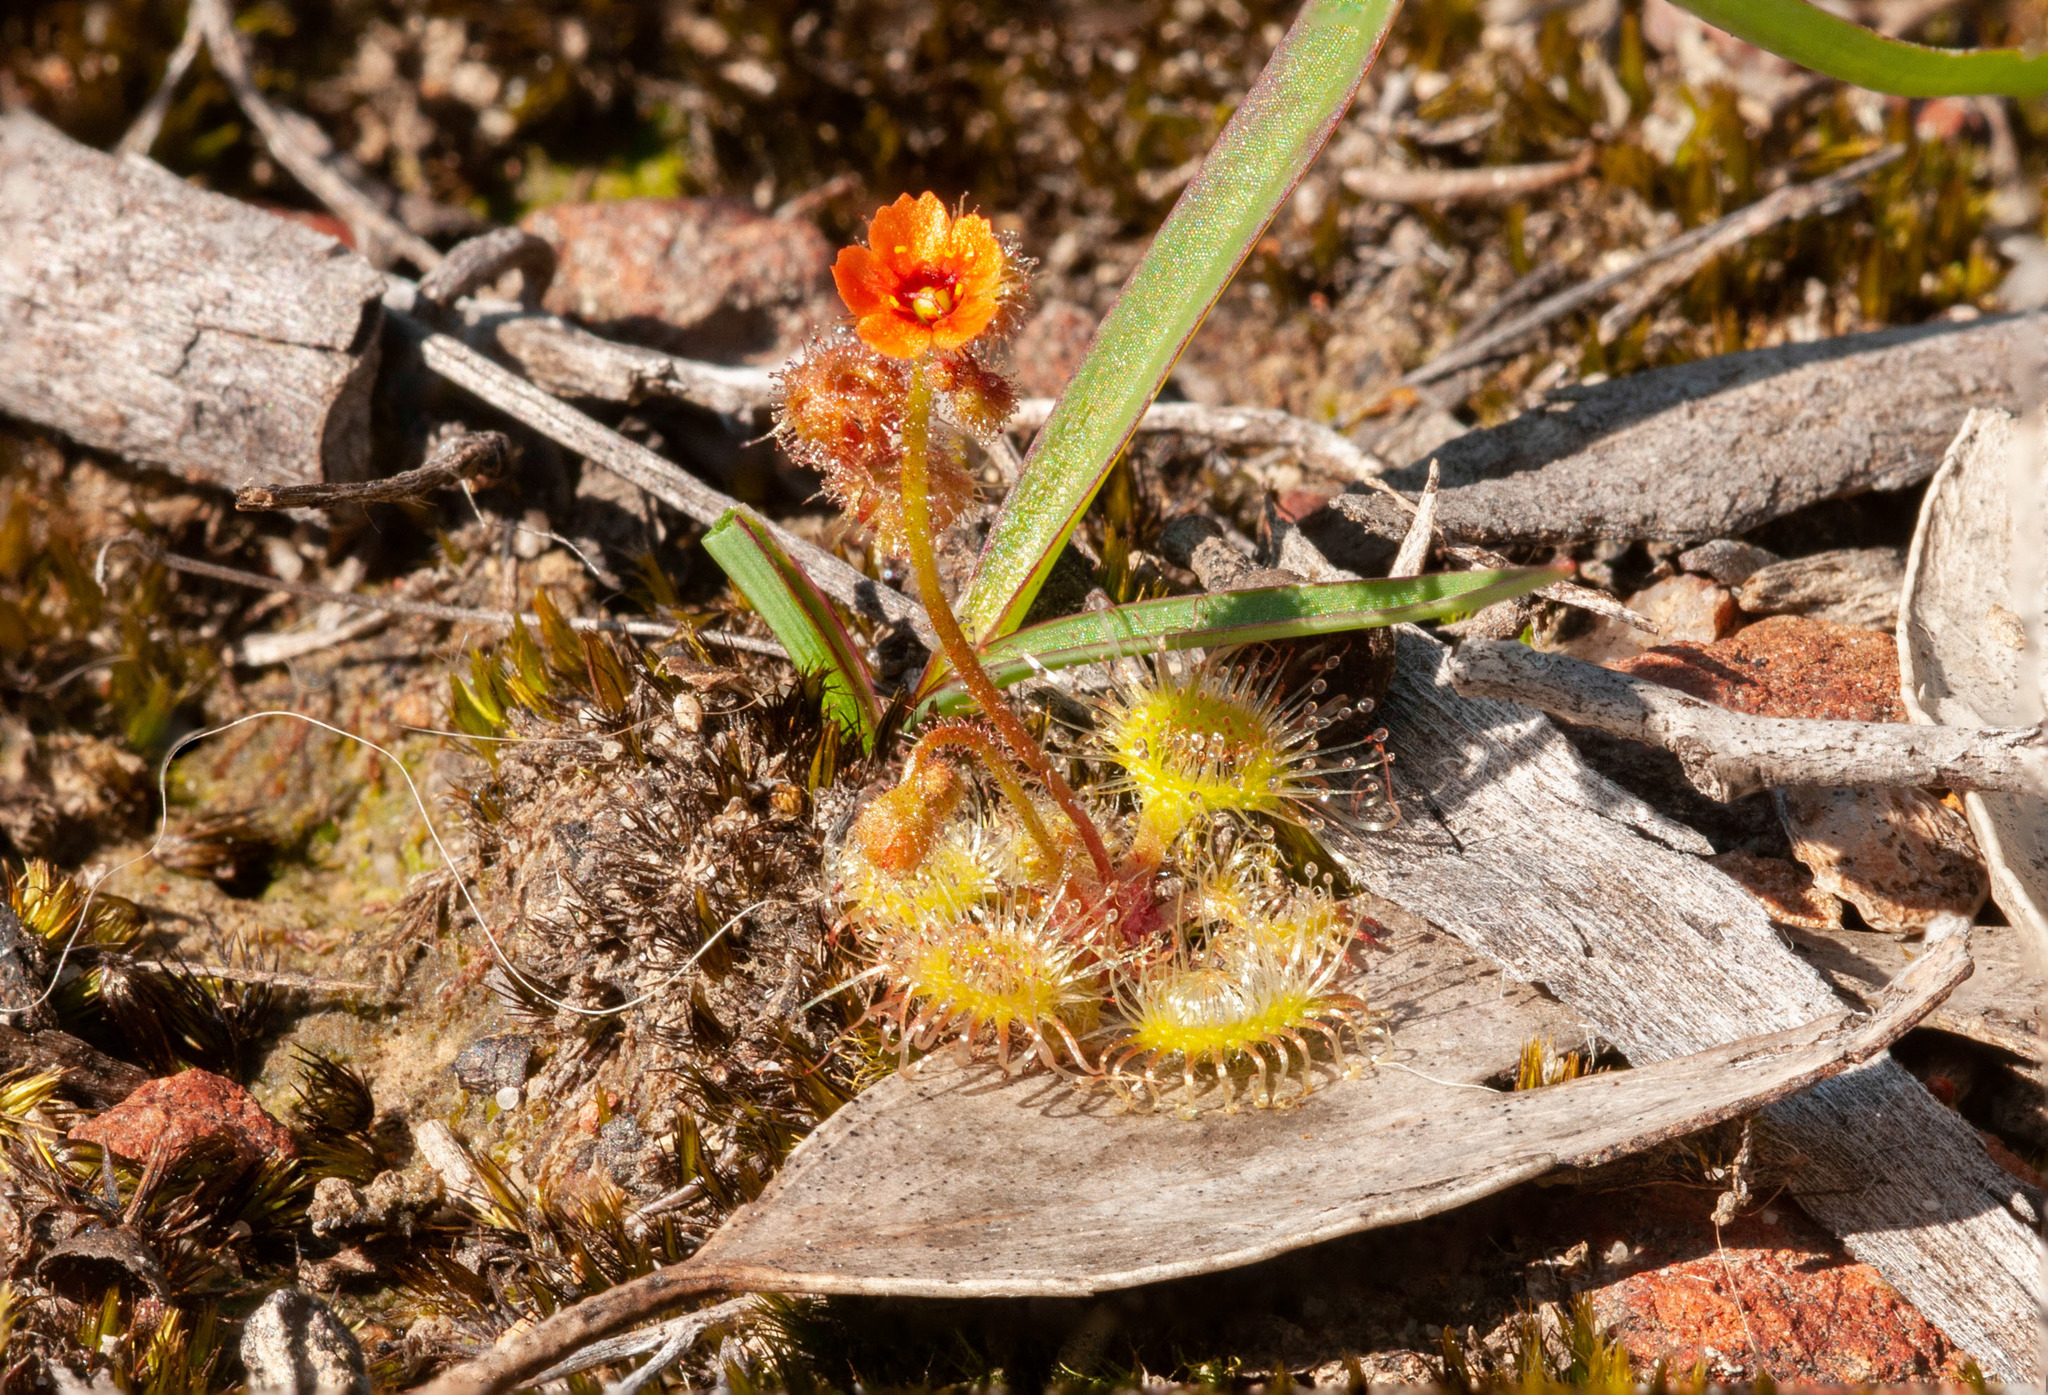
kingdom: Plantae
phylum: Tracheophyta
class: Magnoliopsida
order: Caryophyllales
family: Droseraceae
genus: Drosera
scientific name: Drosera glanduligera
